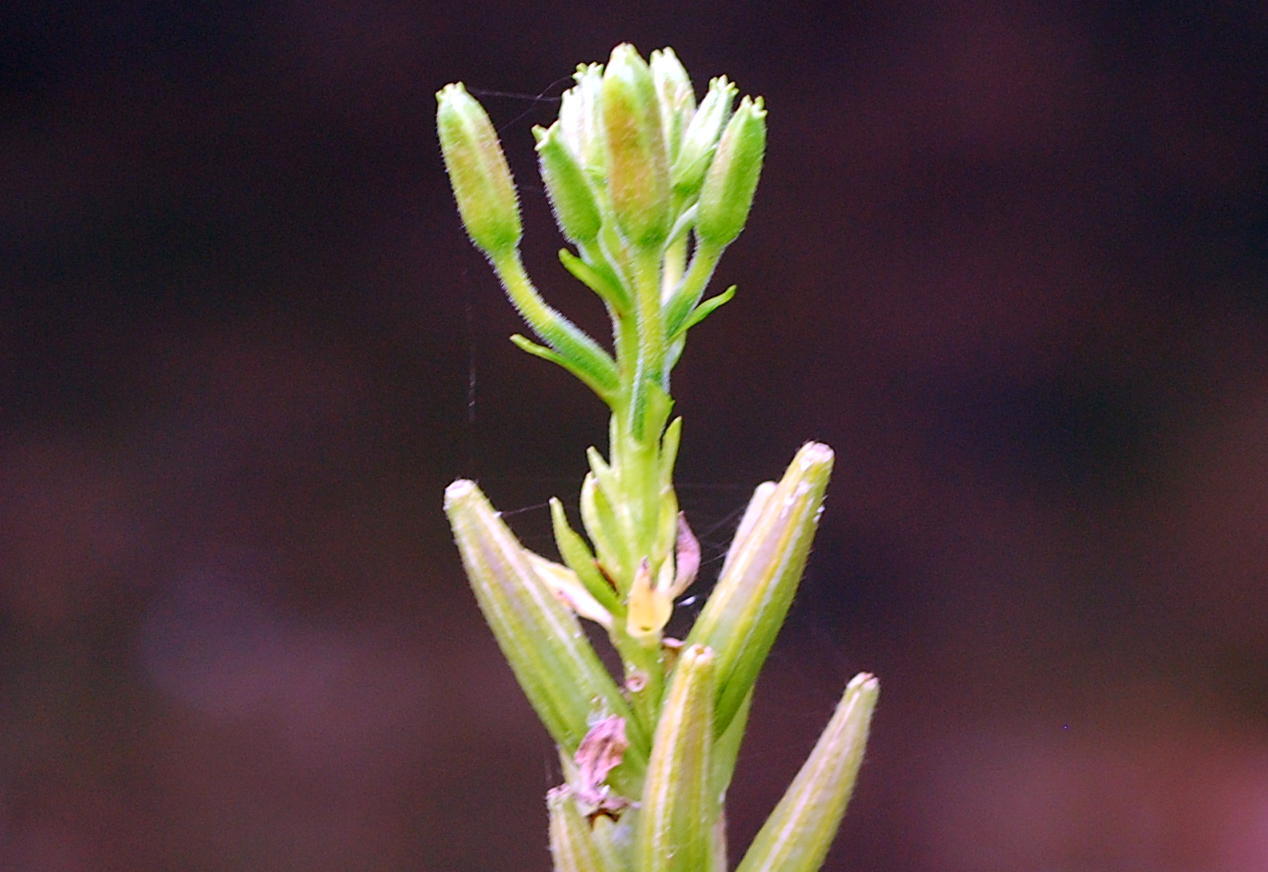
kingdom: Plantae
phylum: Tracheophyta
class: Magnoliopsida
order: Myrtales
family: Onagraceae
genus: Oenothera
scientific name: Oenothera biennis
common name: Common evening-primrose
